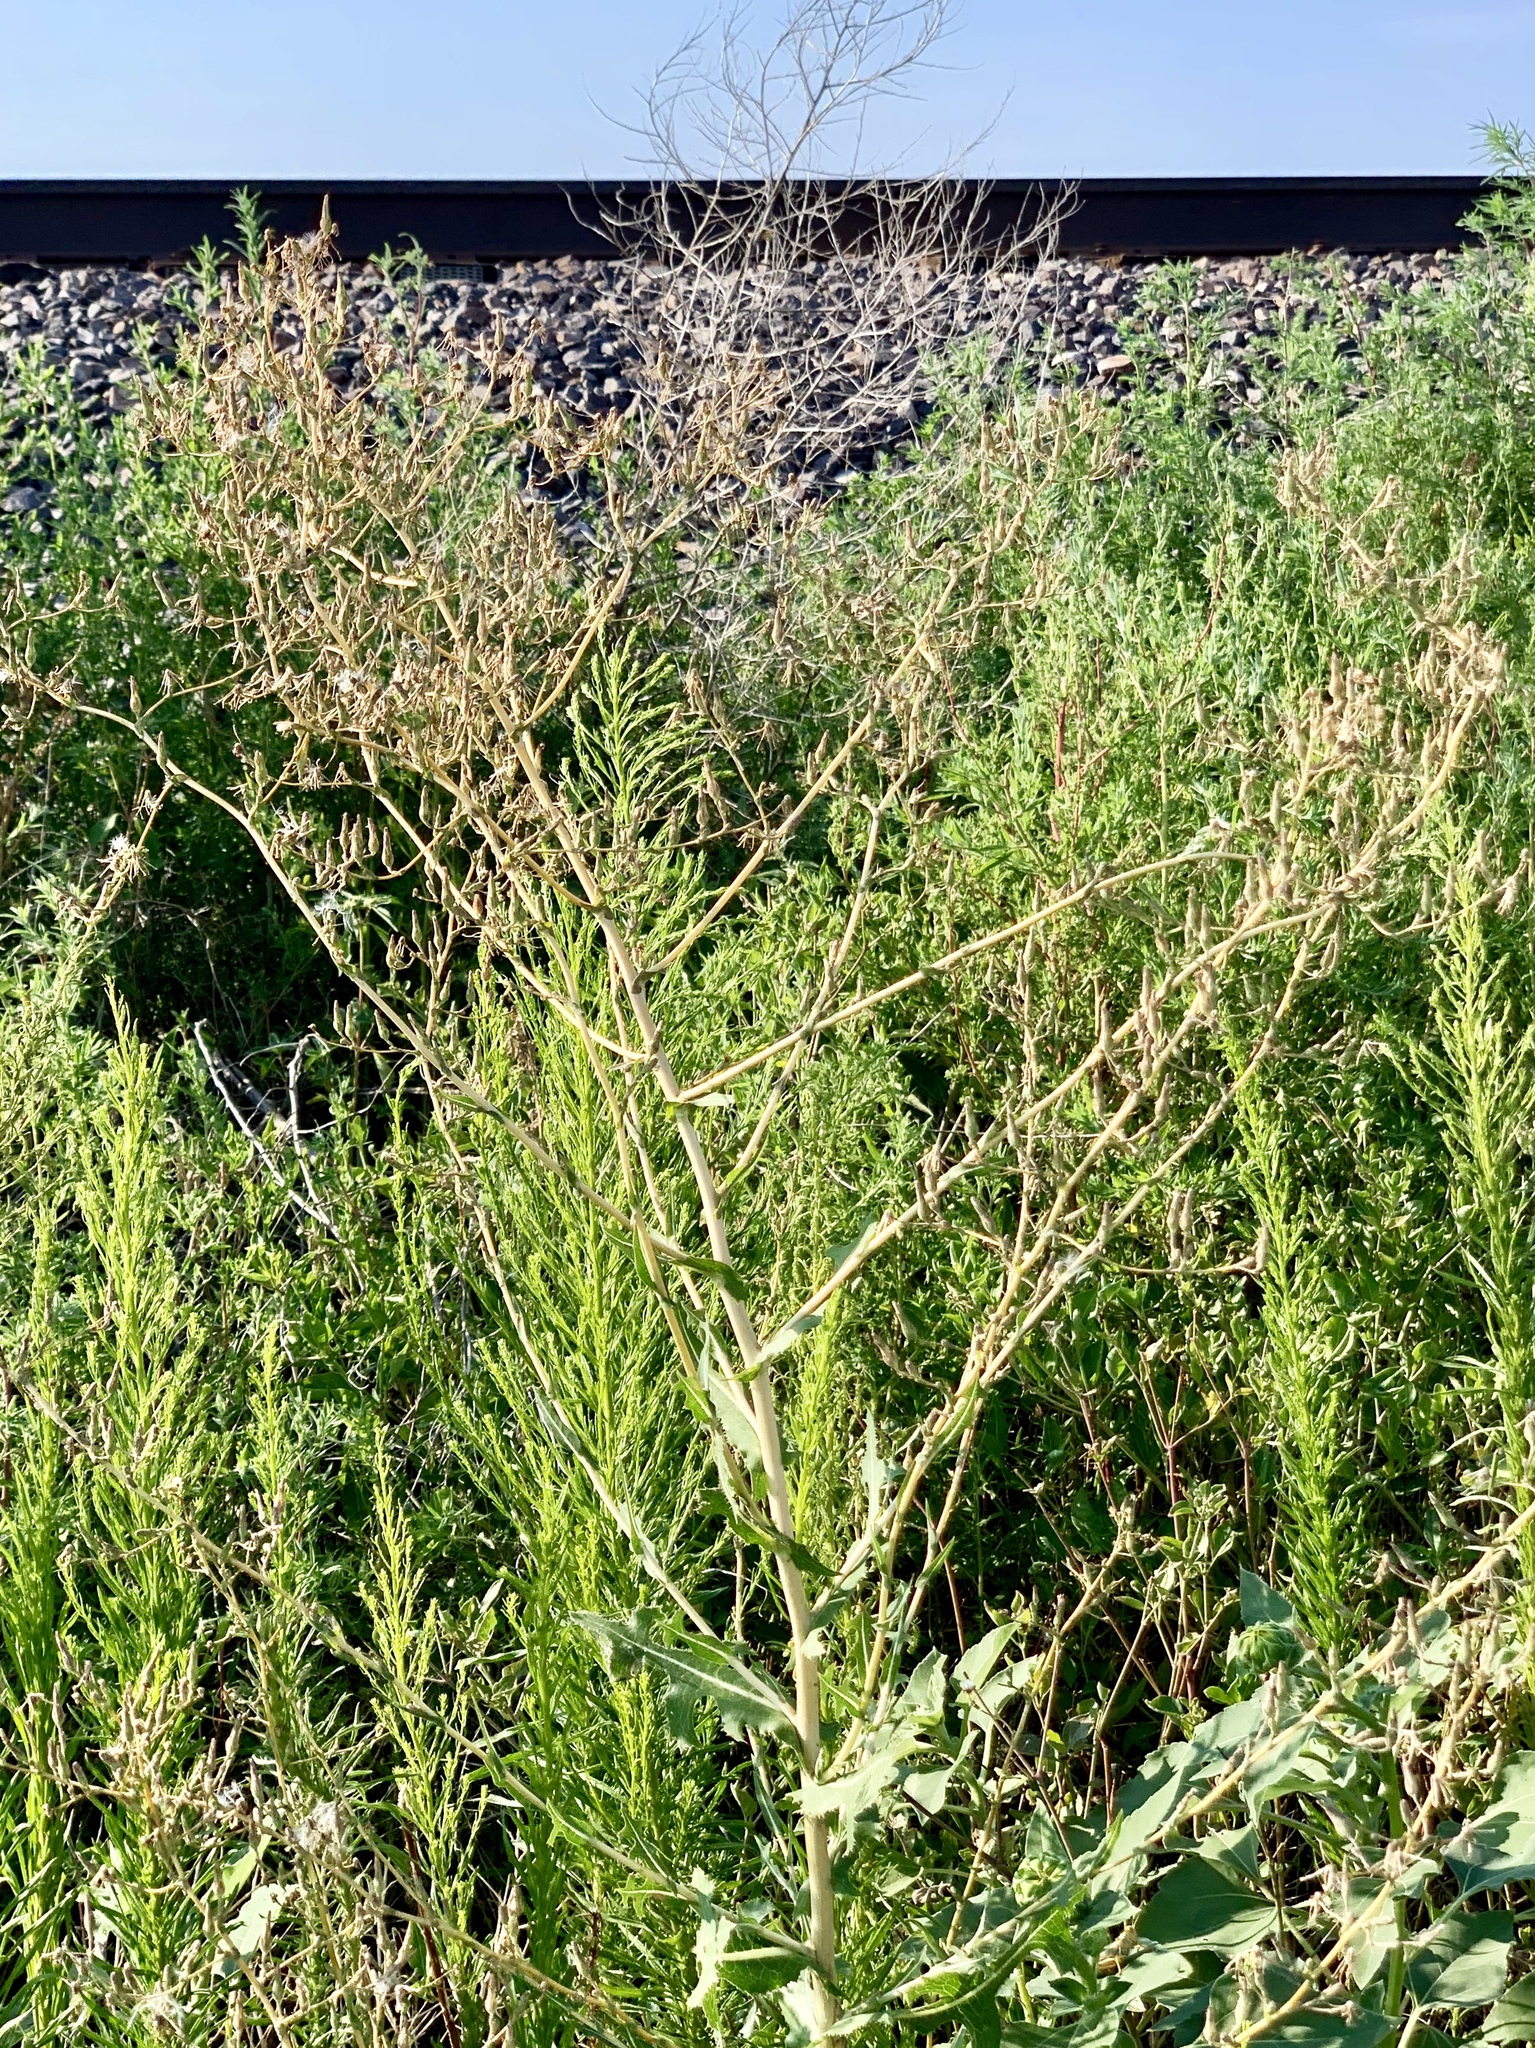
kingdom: Plantae
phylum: Tracheophyta
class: Magnoliopsida
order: Asterales
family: Asteraceae
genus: Lactuca
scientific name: Lactuca serriola
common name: Prickly lettuce
